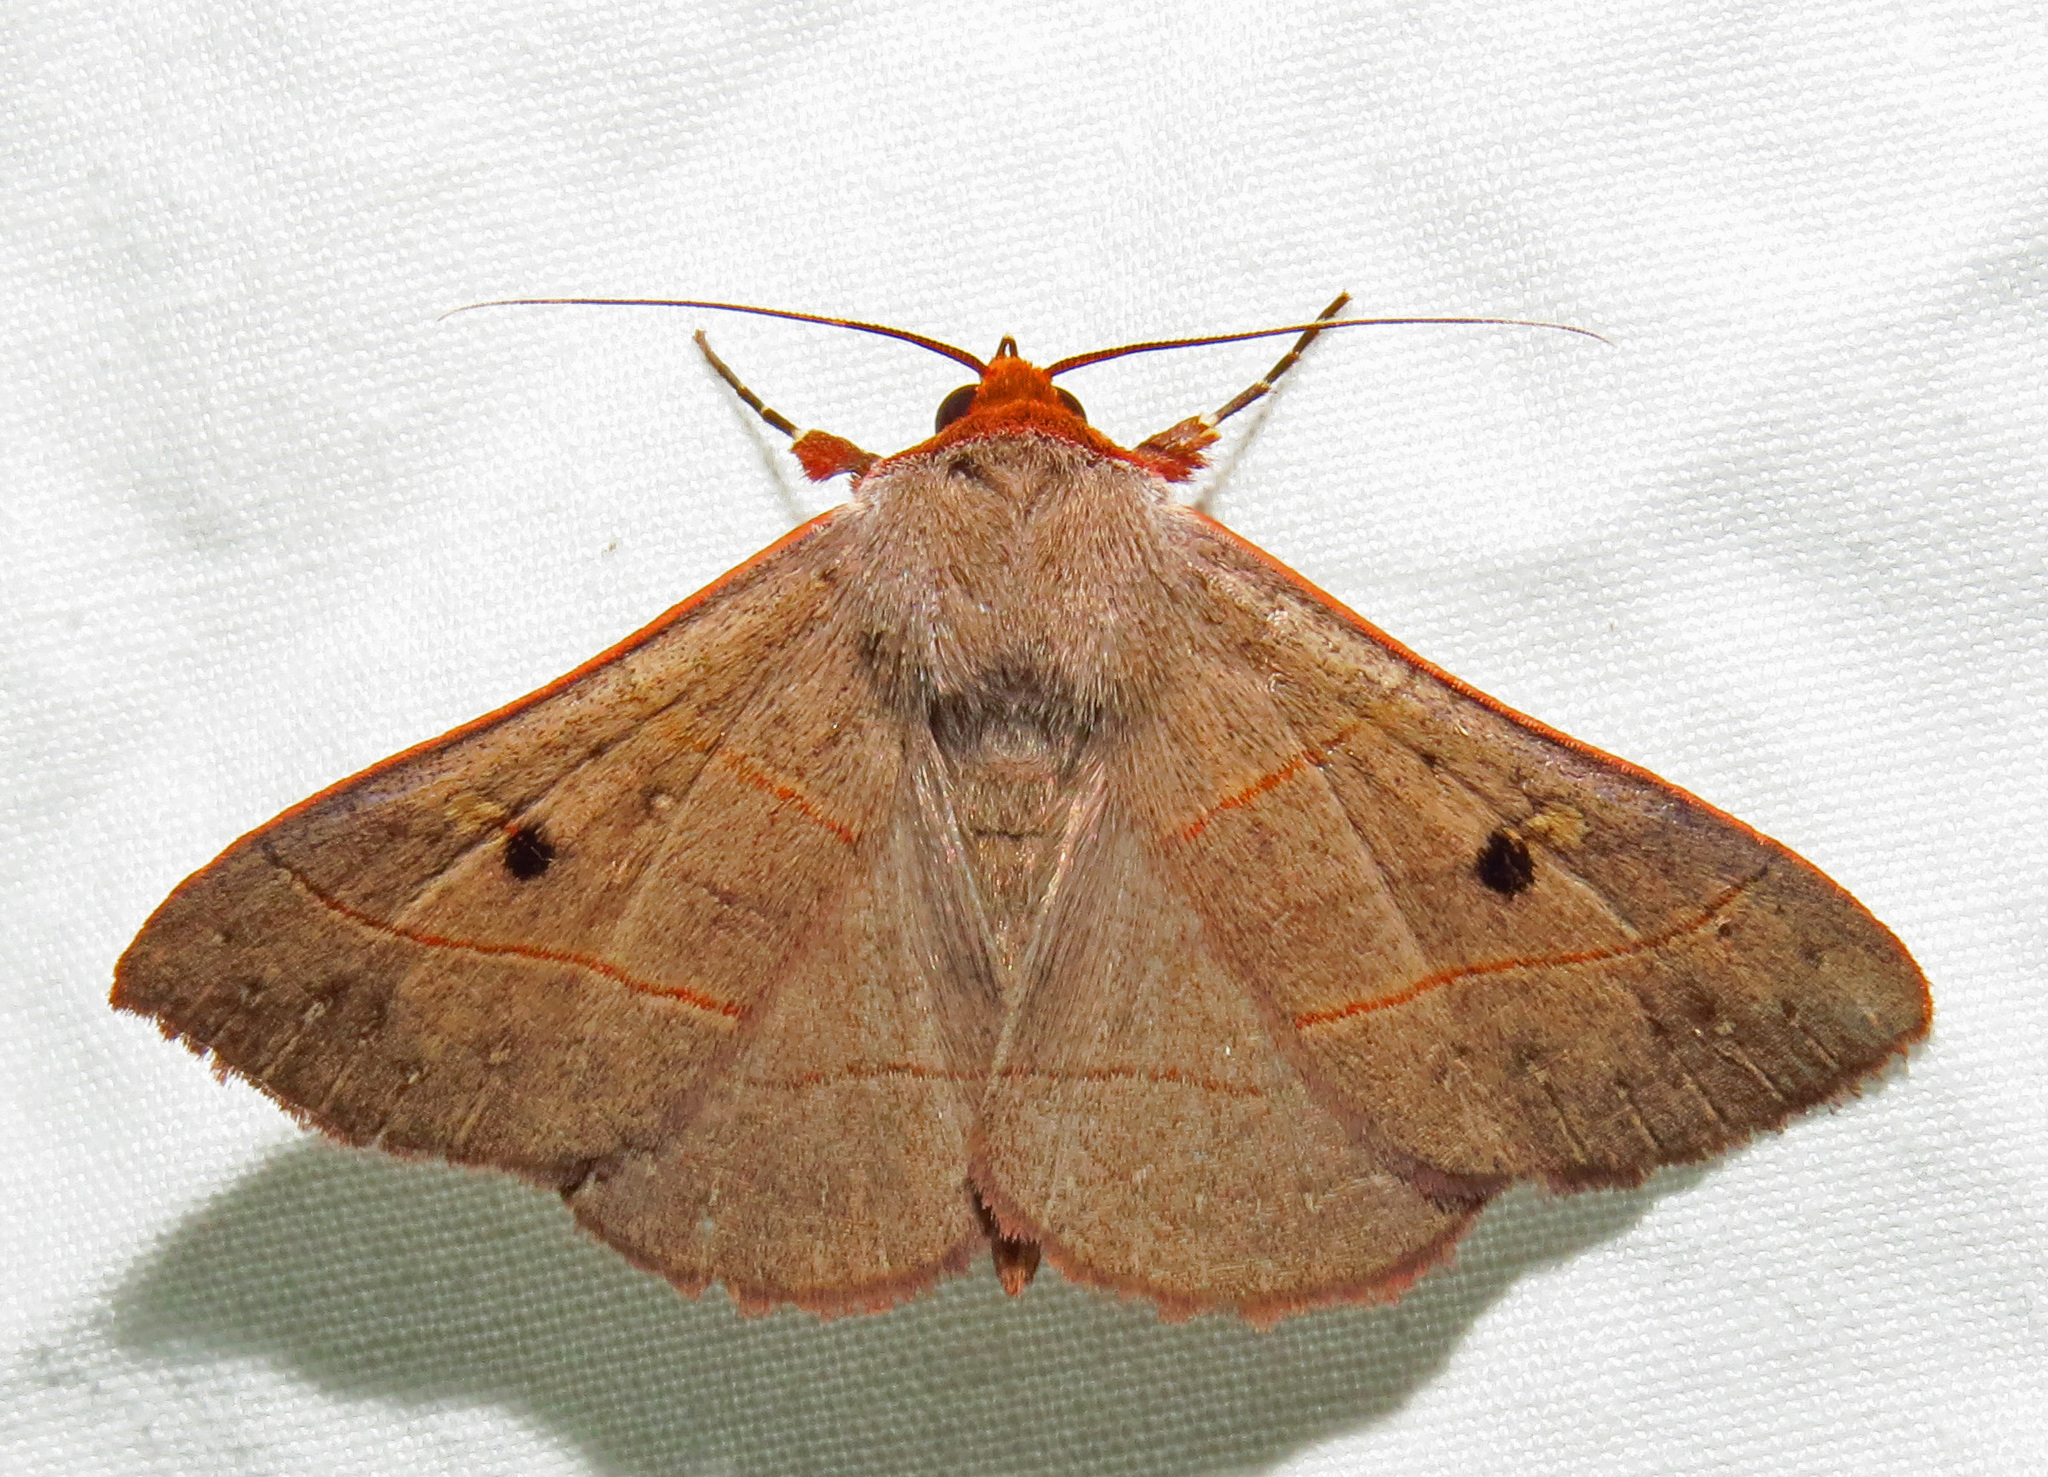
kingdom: Animalia
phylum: Arthropoda
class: Insecta
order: Lepidoptera
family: Erebidae
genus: Panopoda
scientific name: Panopoda rufimargo
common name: Red-lined panopoda moth
